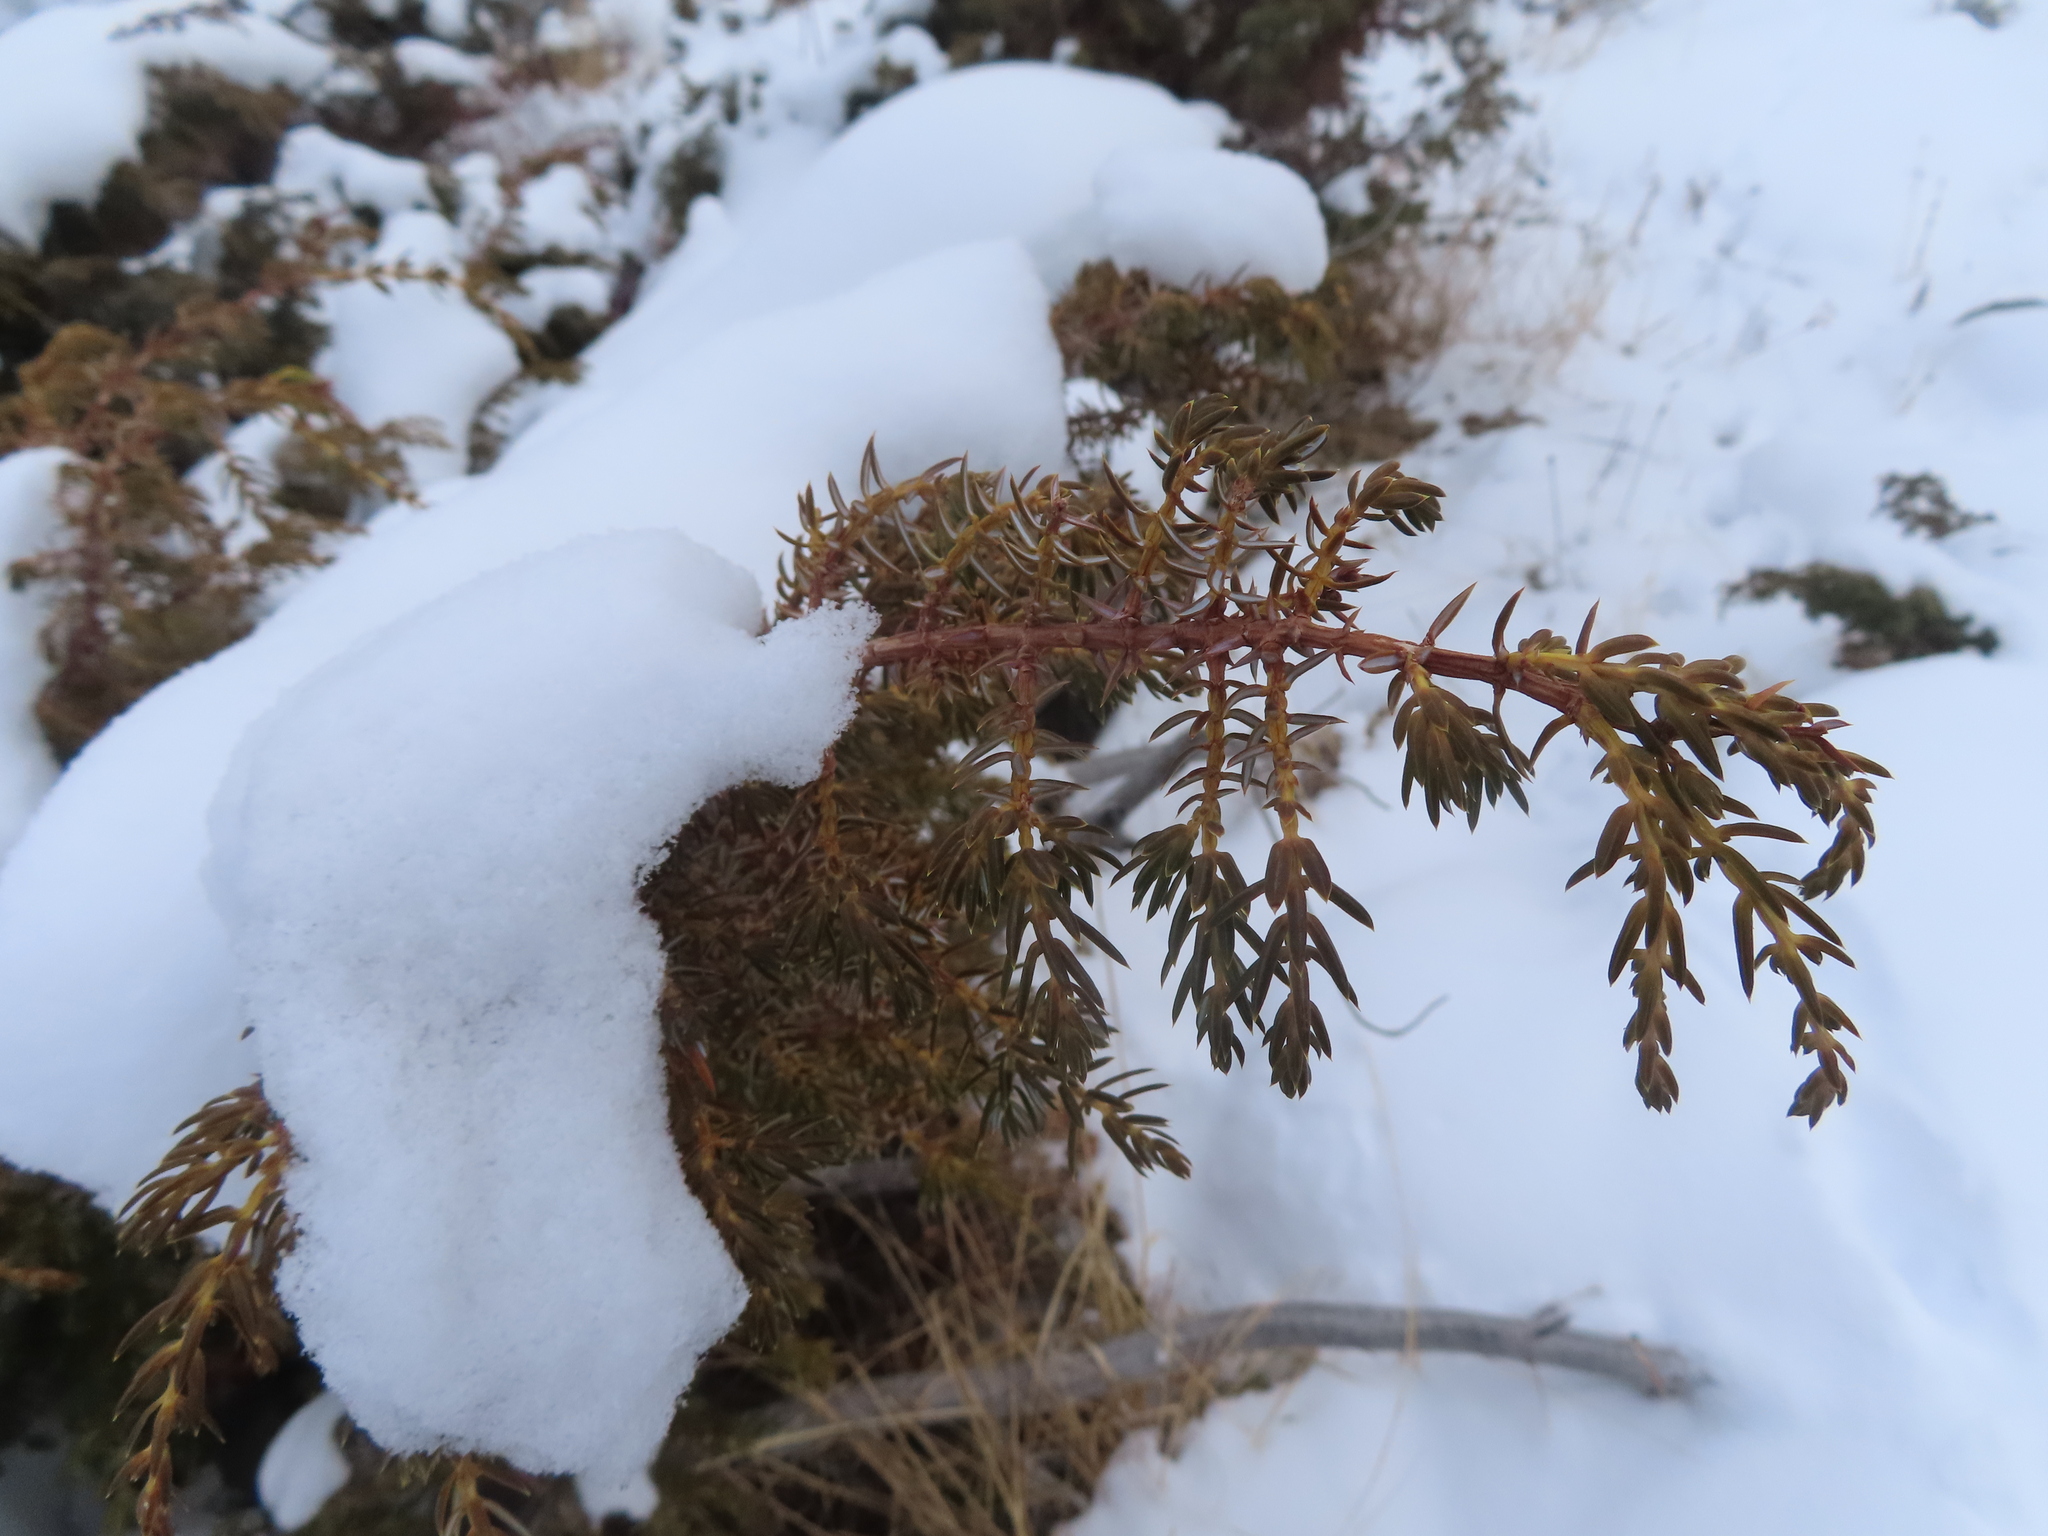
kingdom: Plantae
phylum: Tracheophyta
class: Pinopsida
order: Pinales
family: Cupressaceae
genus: Juniperus
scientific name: Juniperus communis
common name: Common juniper
